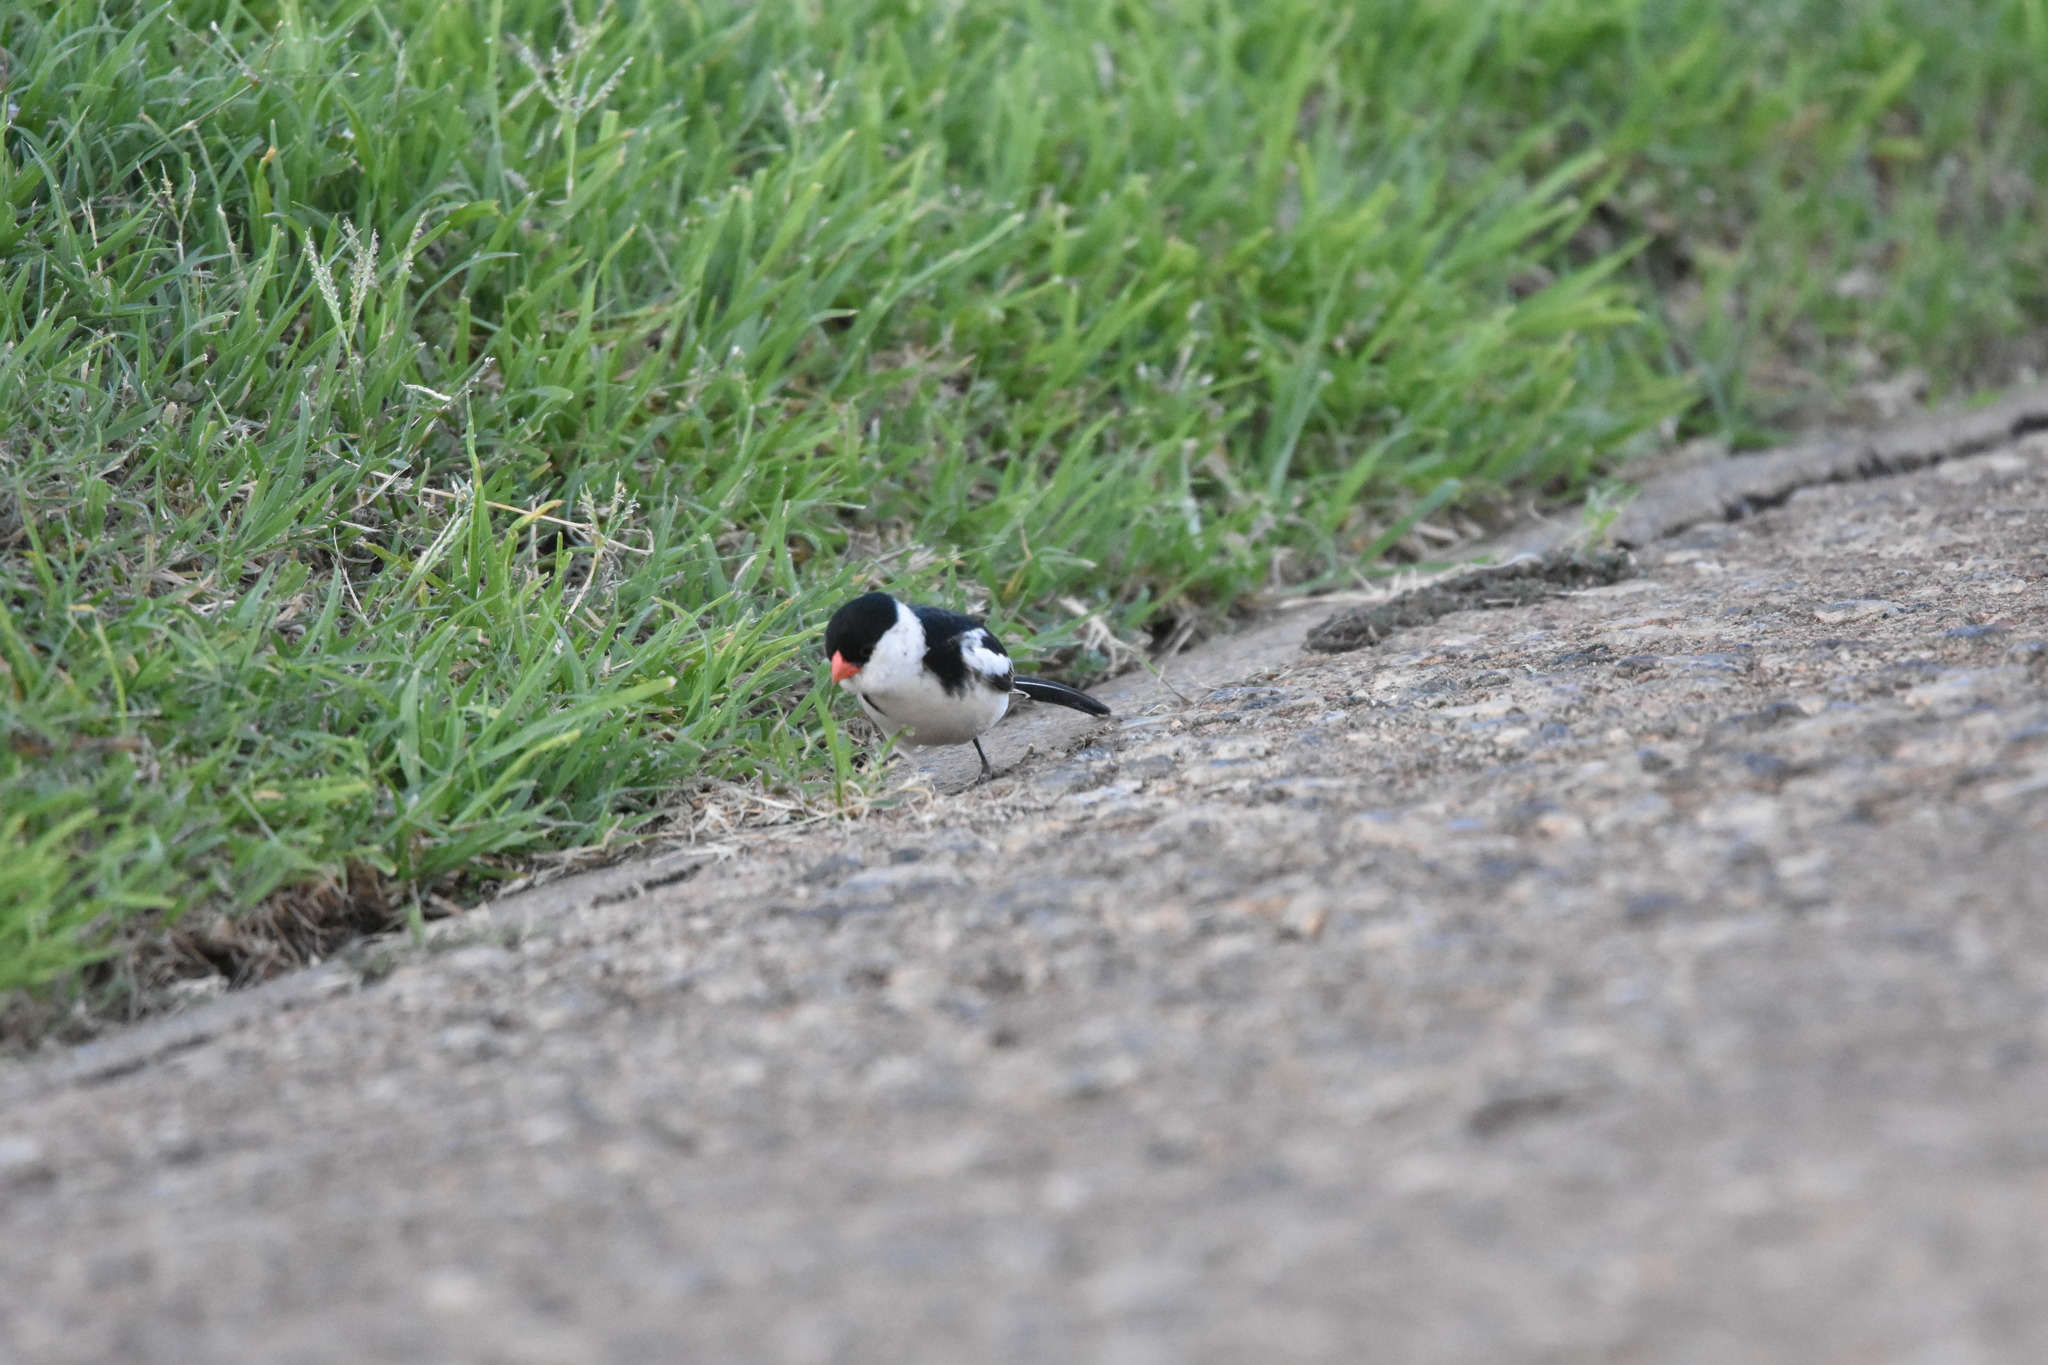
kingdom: Animalia
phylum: Chordata
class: Aves
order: Passeriformes
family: Viduidae
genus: Vidua
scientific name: Vidua macroura
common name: Pin-tailed whydah
